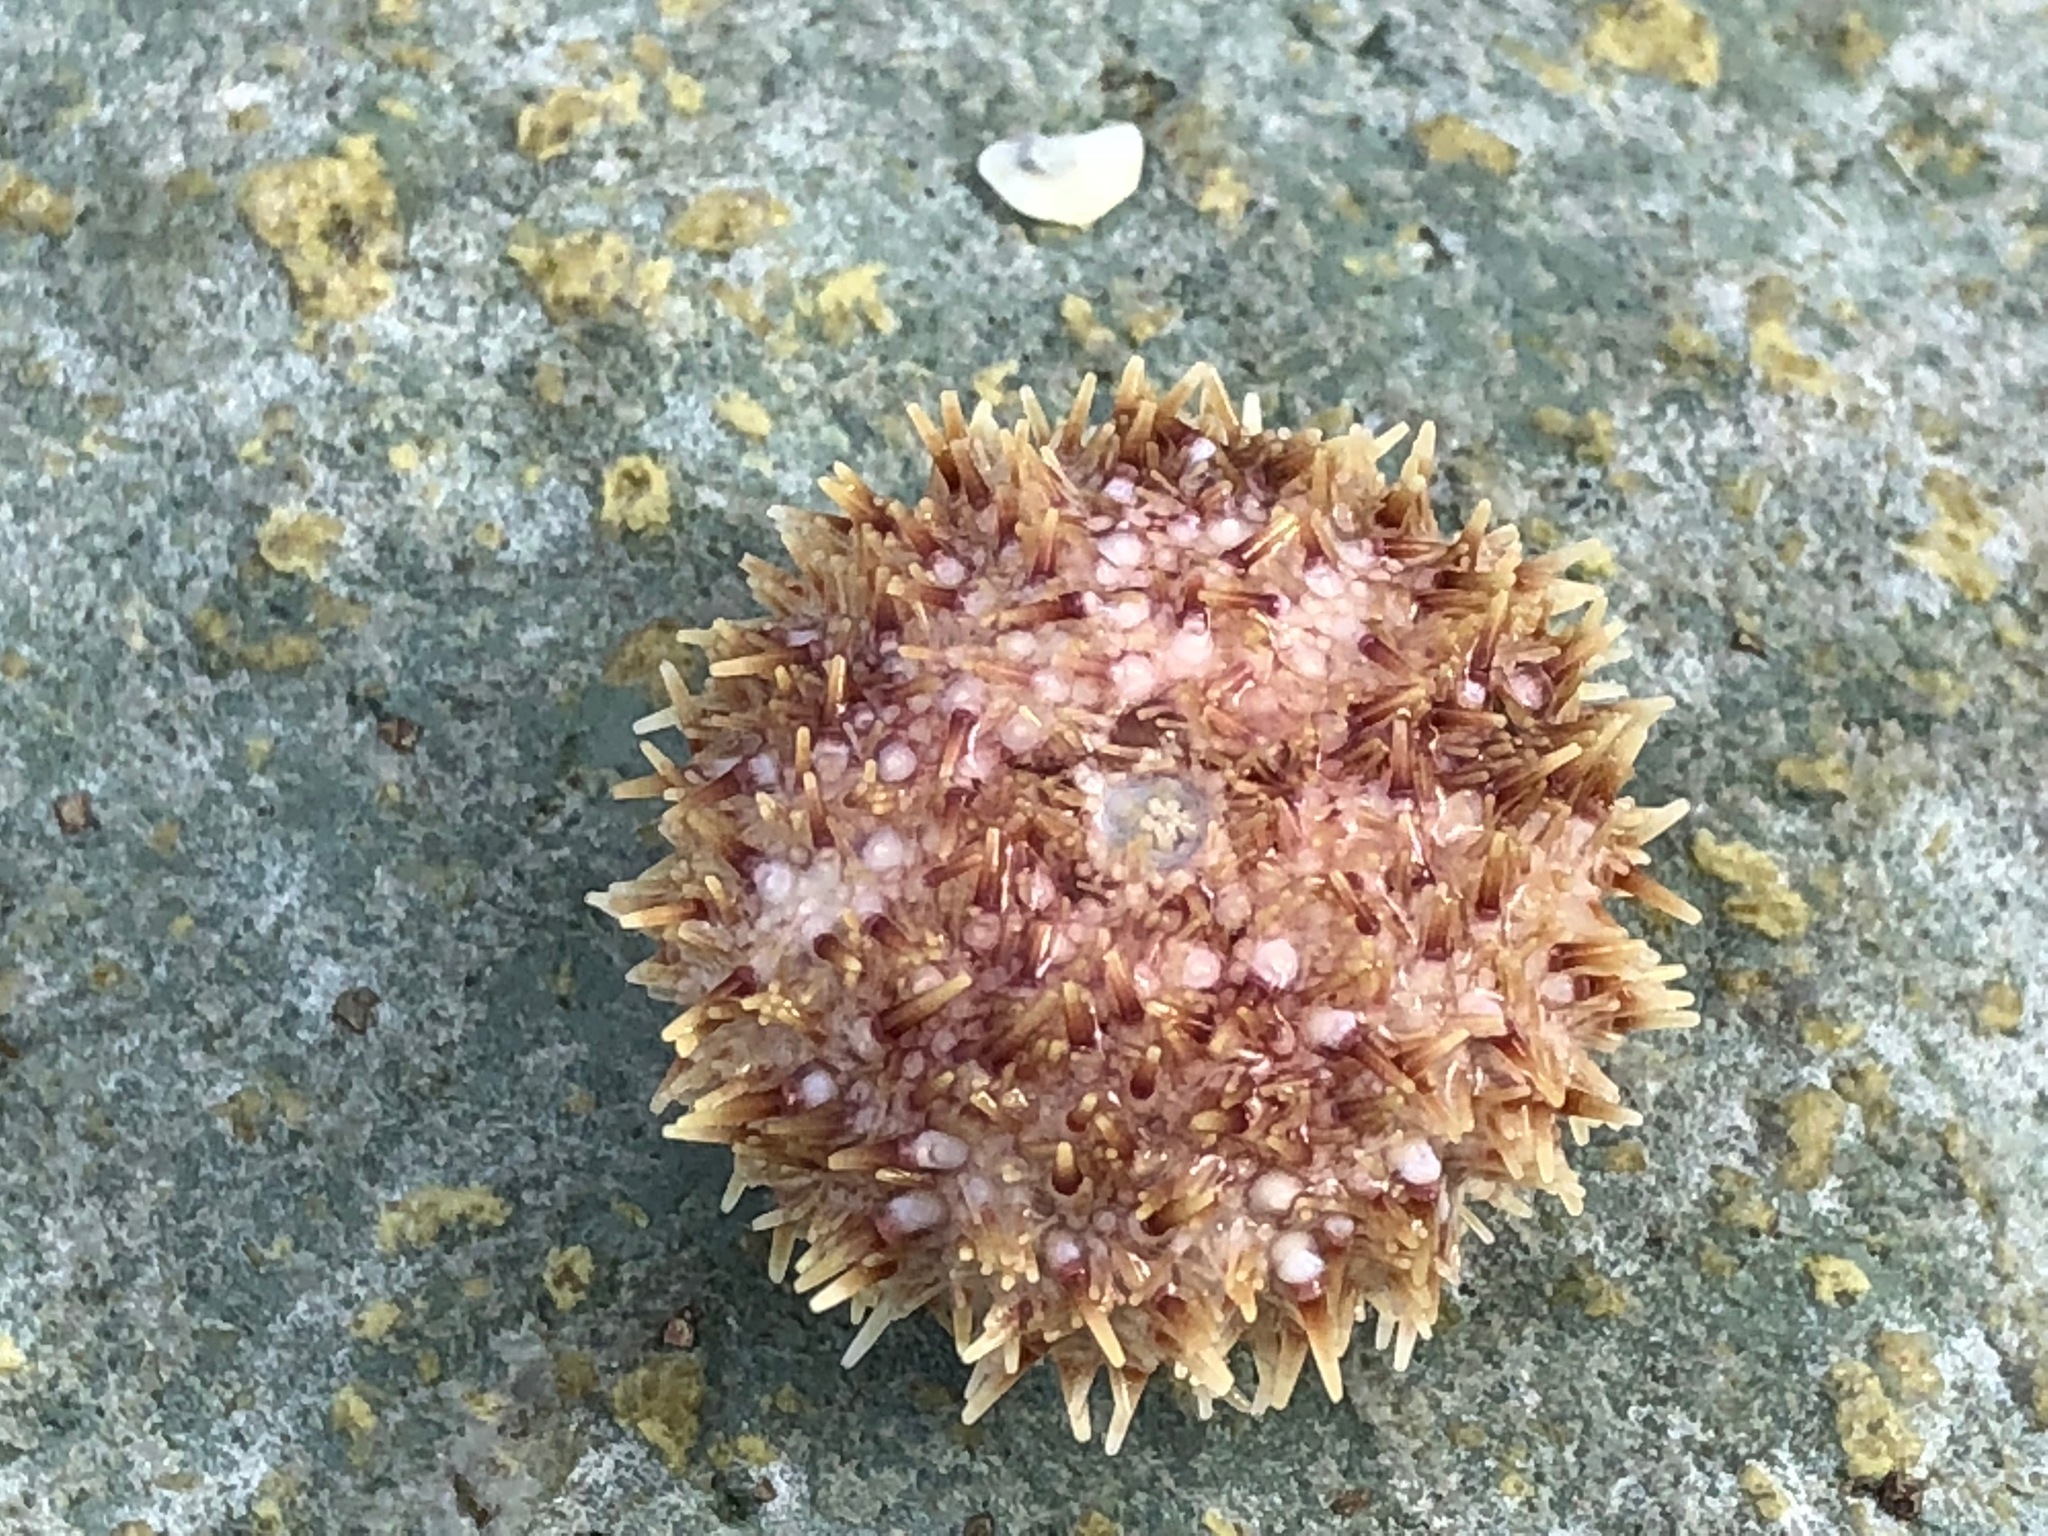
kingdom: Animalia
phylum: Echinodermata
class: Echinoidea
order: Camarodonta
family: Strongylocentrotidae
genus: Strongylocentrotus
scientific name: Strongylocentrotus droebachiensis
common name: Northern sea urchin
